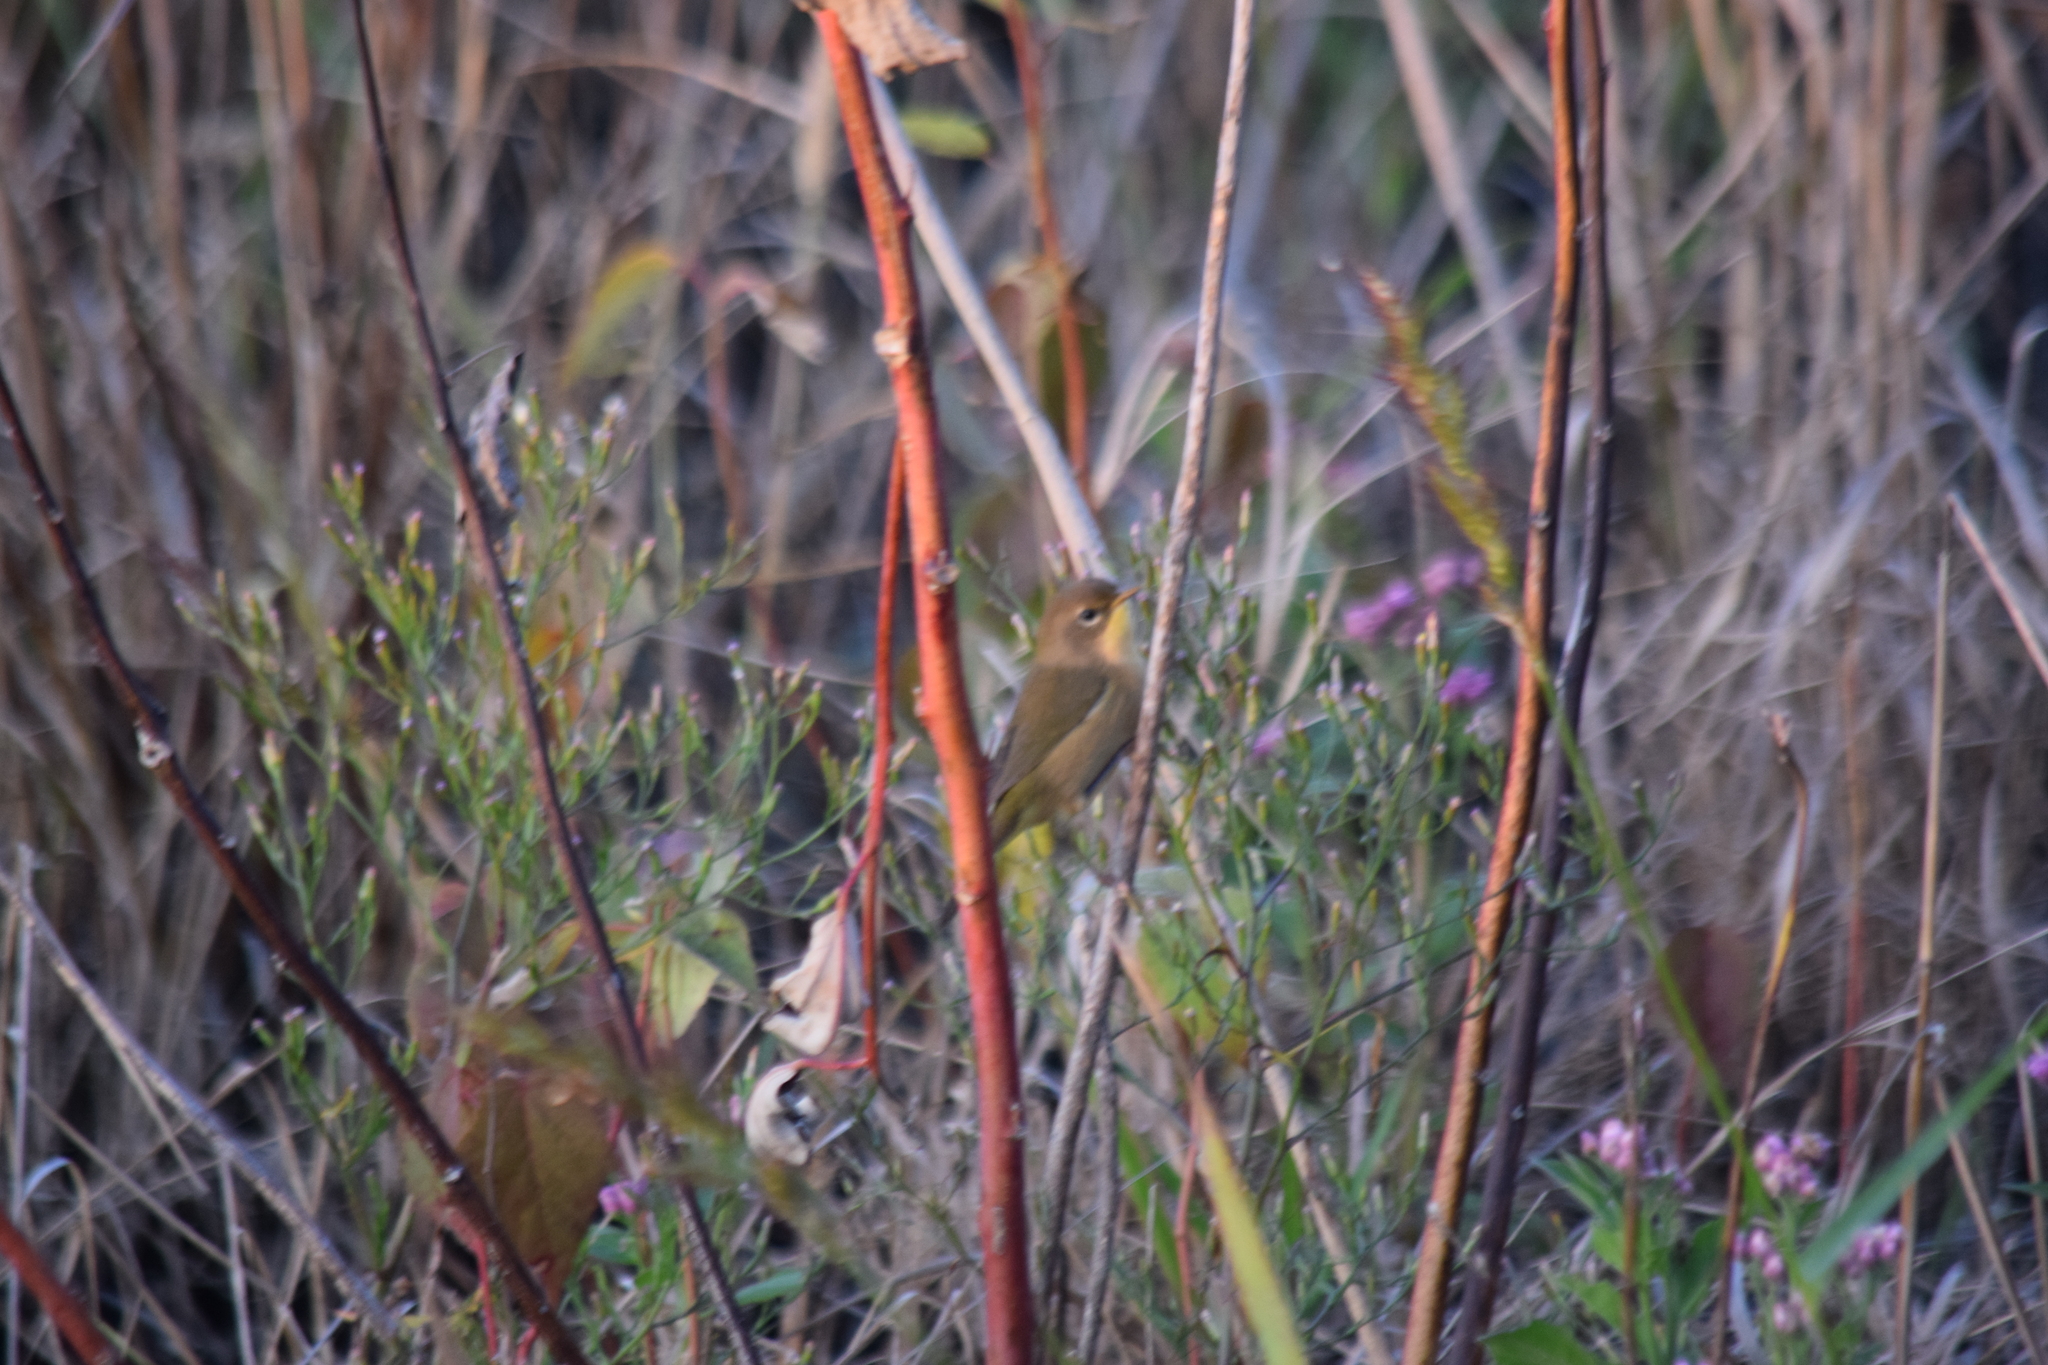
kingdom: Animalia
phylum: Chordata
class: Aves
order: Passeriformes
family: Parulidae
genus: Geothlypis
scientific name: Geothlypis trichas
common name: Common yellowthroat
